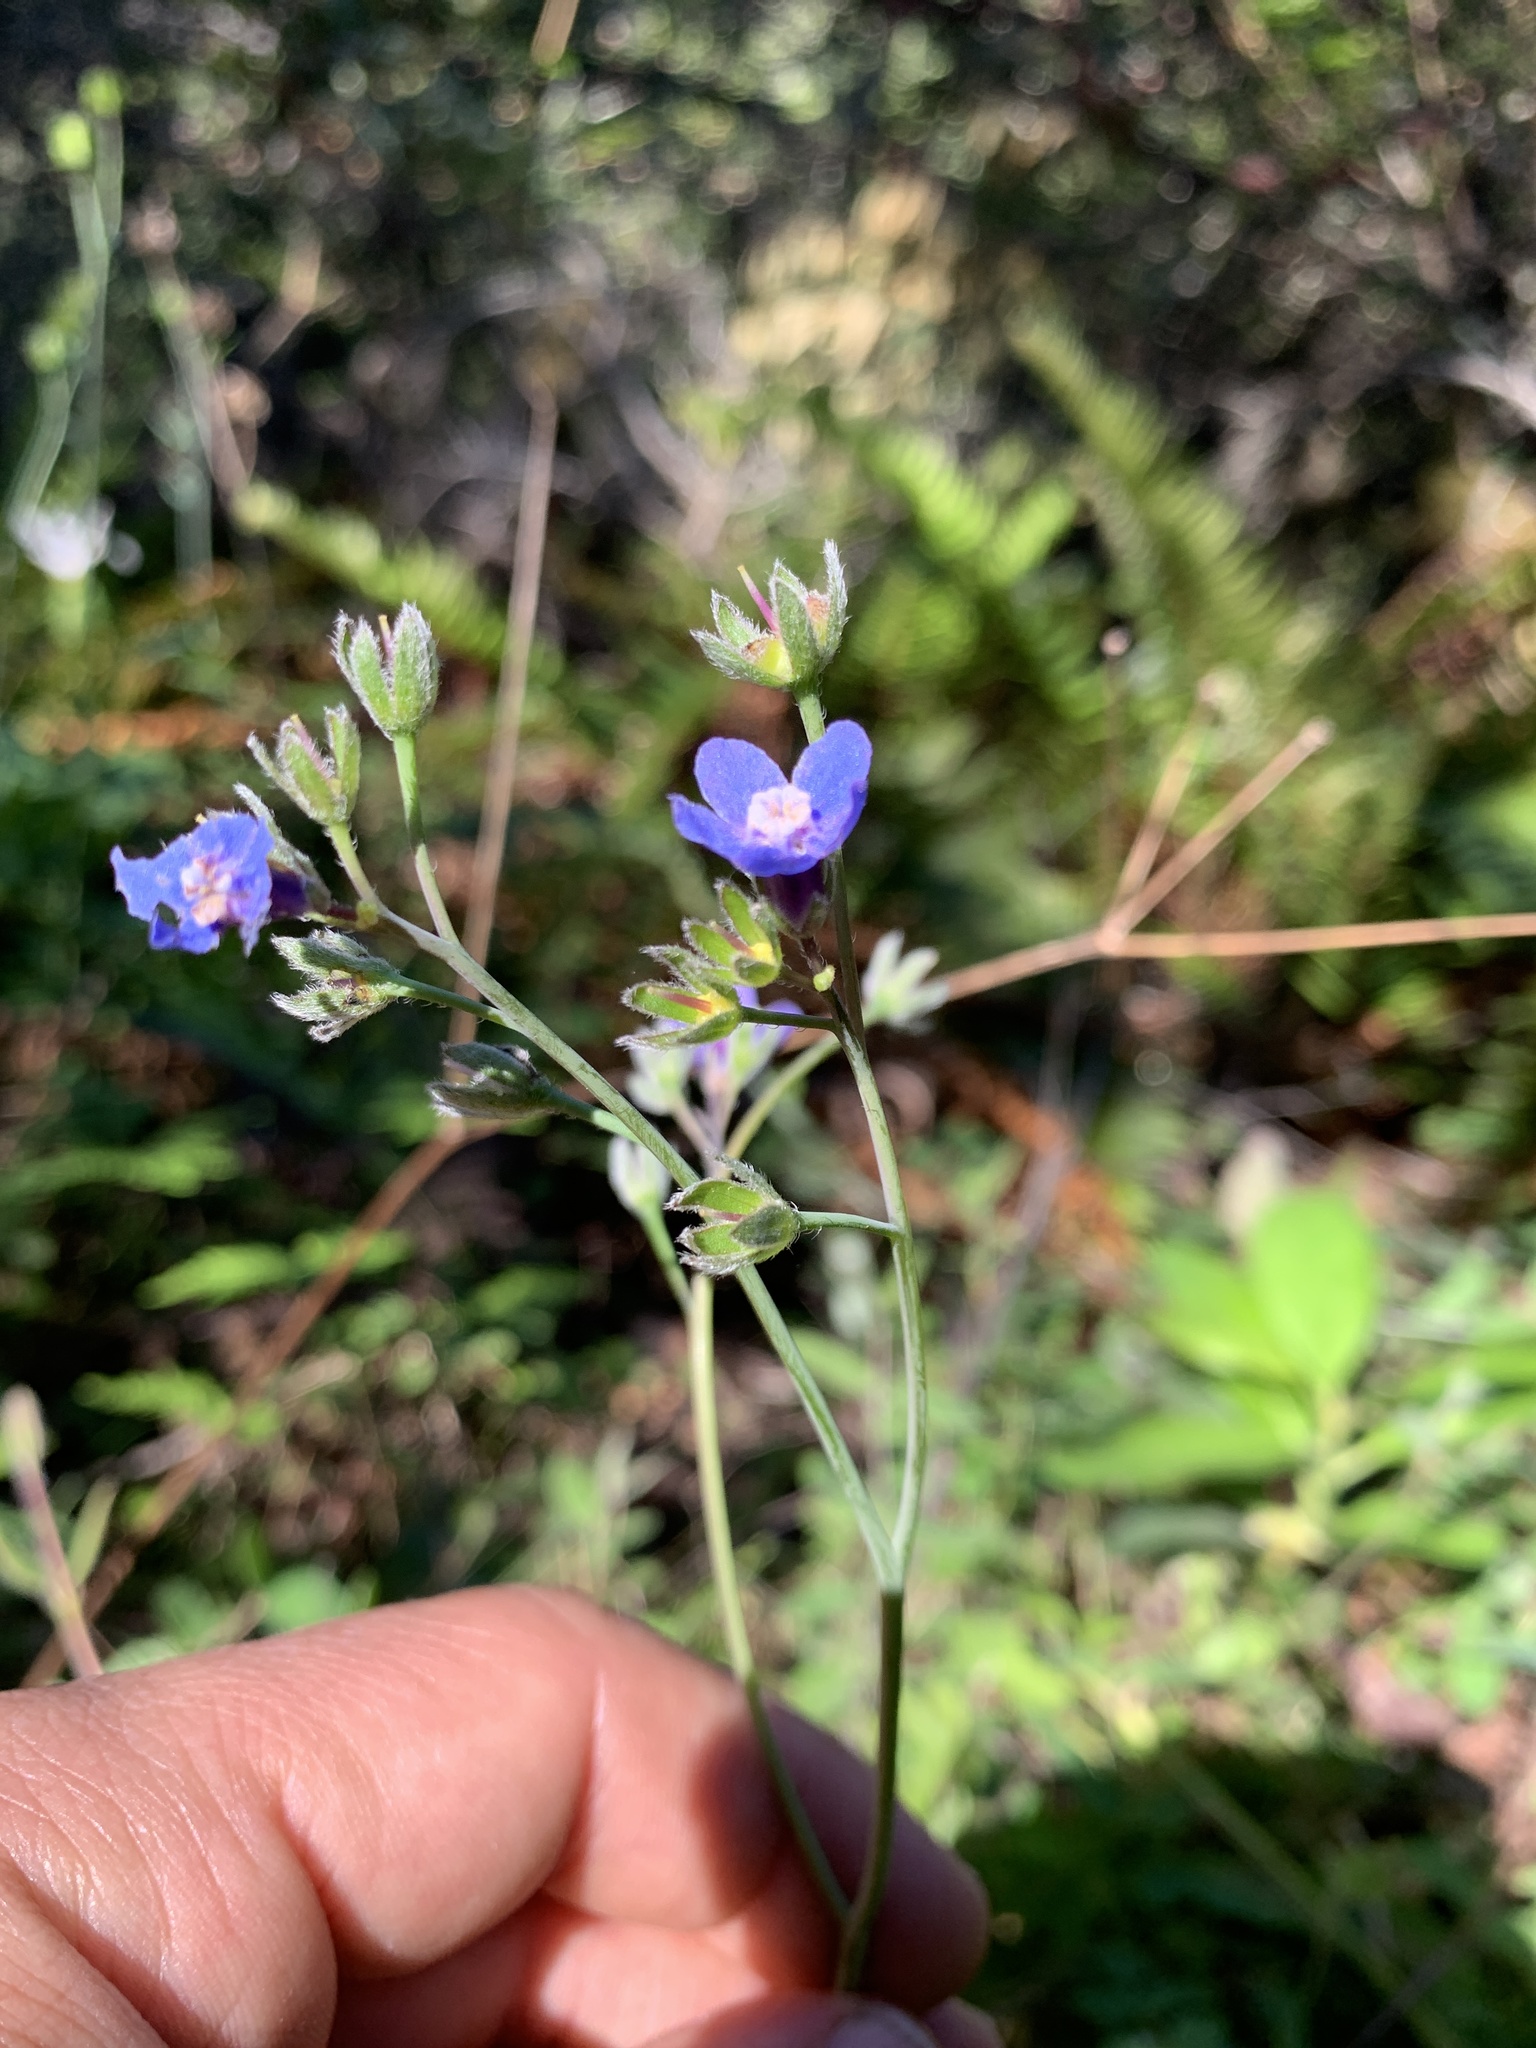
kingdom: Plantae
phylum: Tracheophyta
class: Magnoliopsida
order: Boraginales
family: Boraginaceae
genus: Adelinia
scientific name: Adelinia grande
